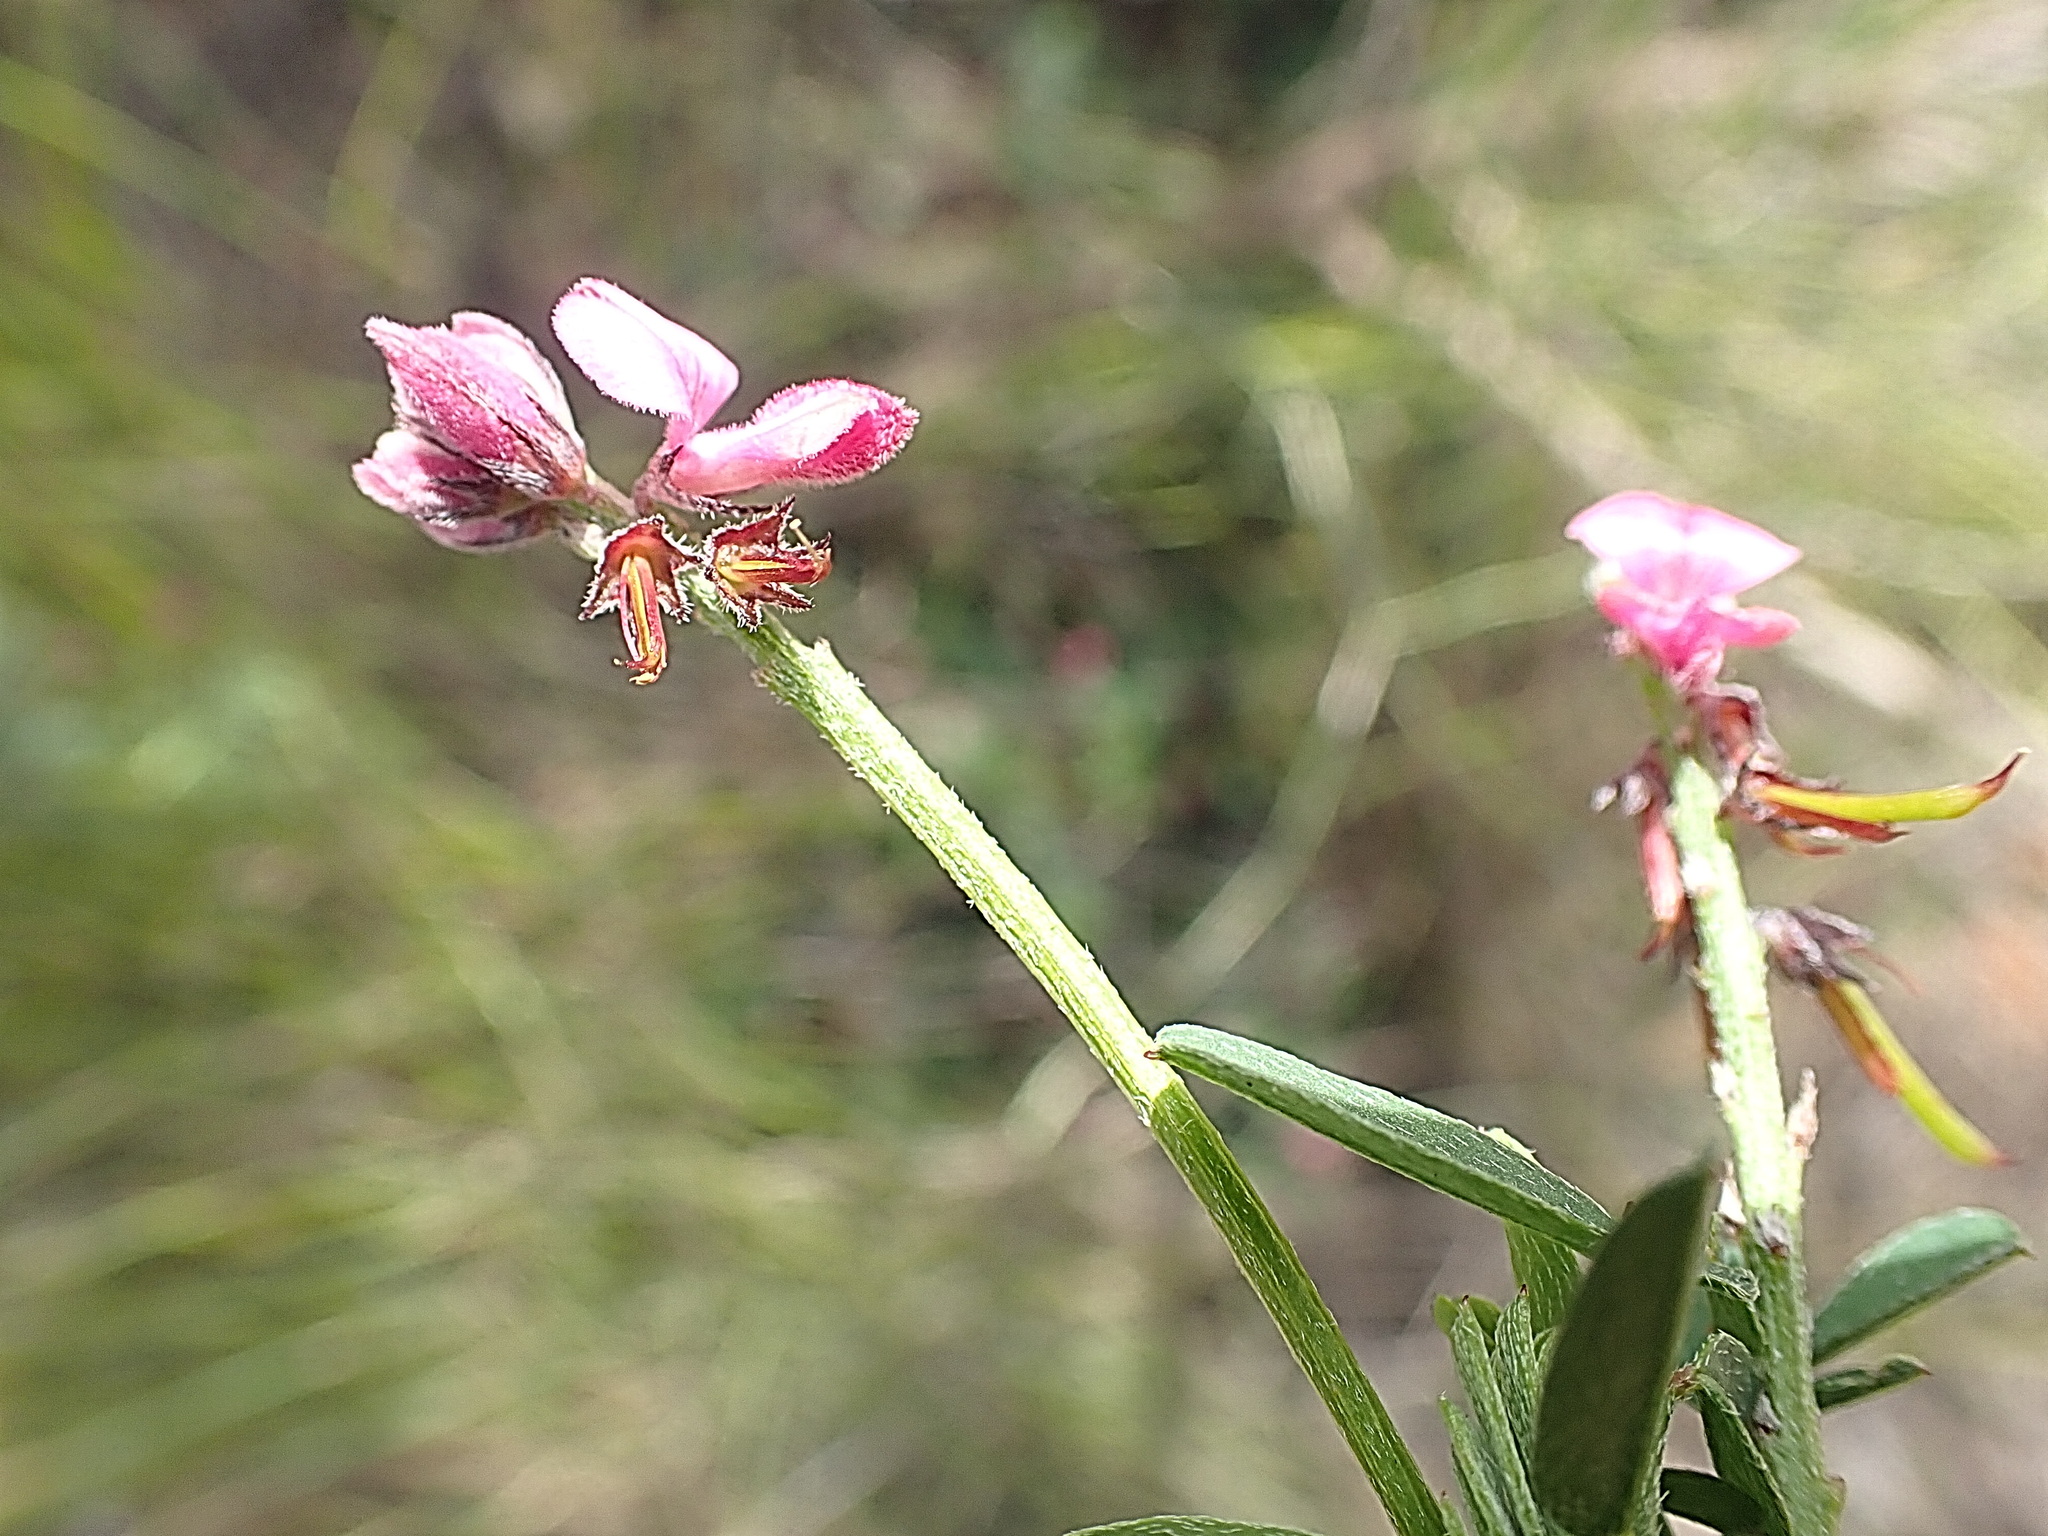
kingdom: Plantae
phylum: Tracheophyta
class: Magnoliopsida
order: Fabales
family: Fabaceae
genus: Indigofera
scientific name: Indigofera declinata
